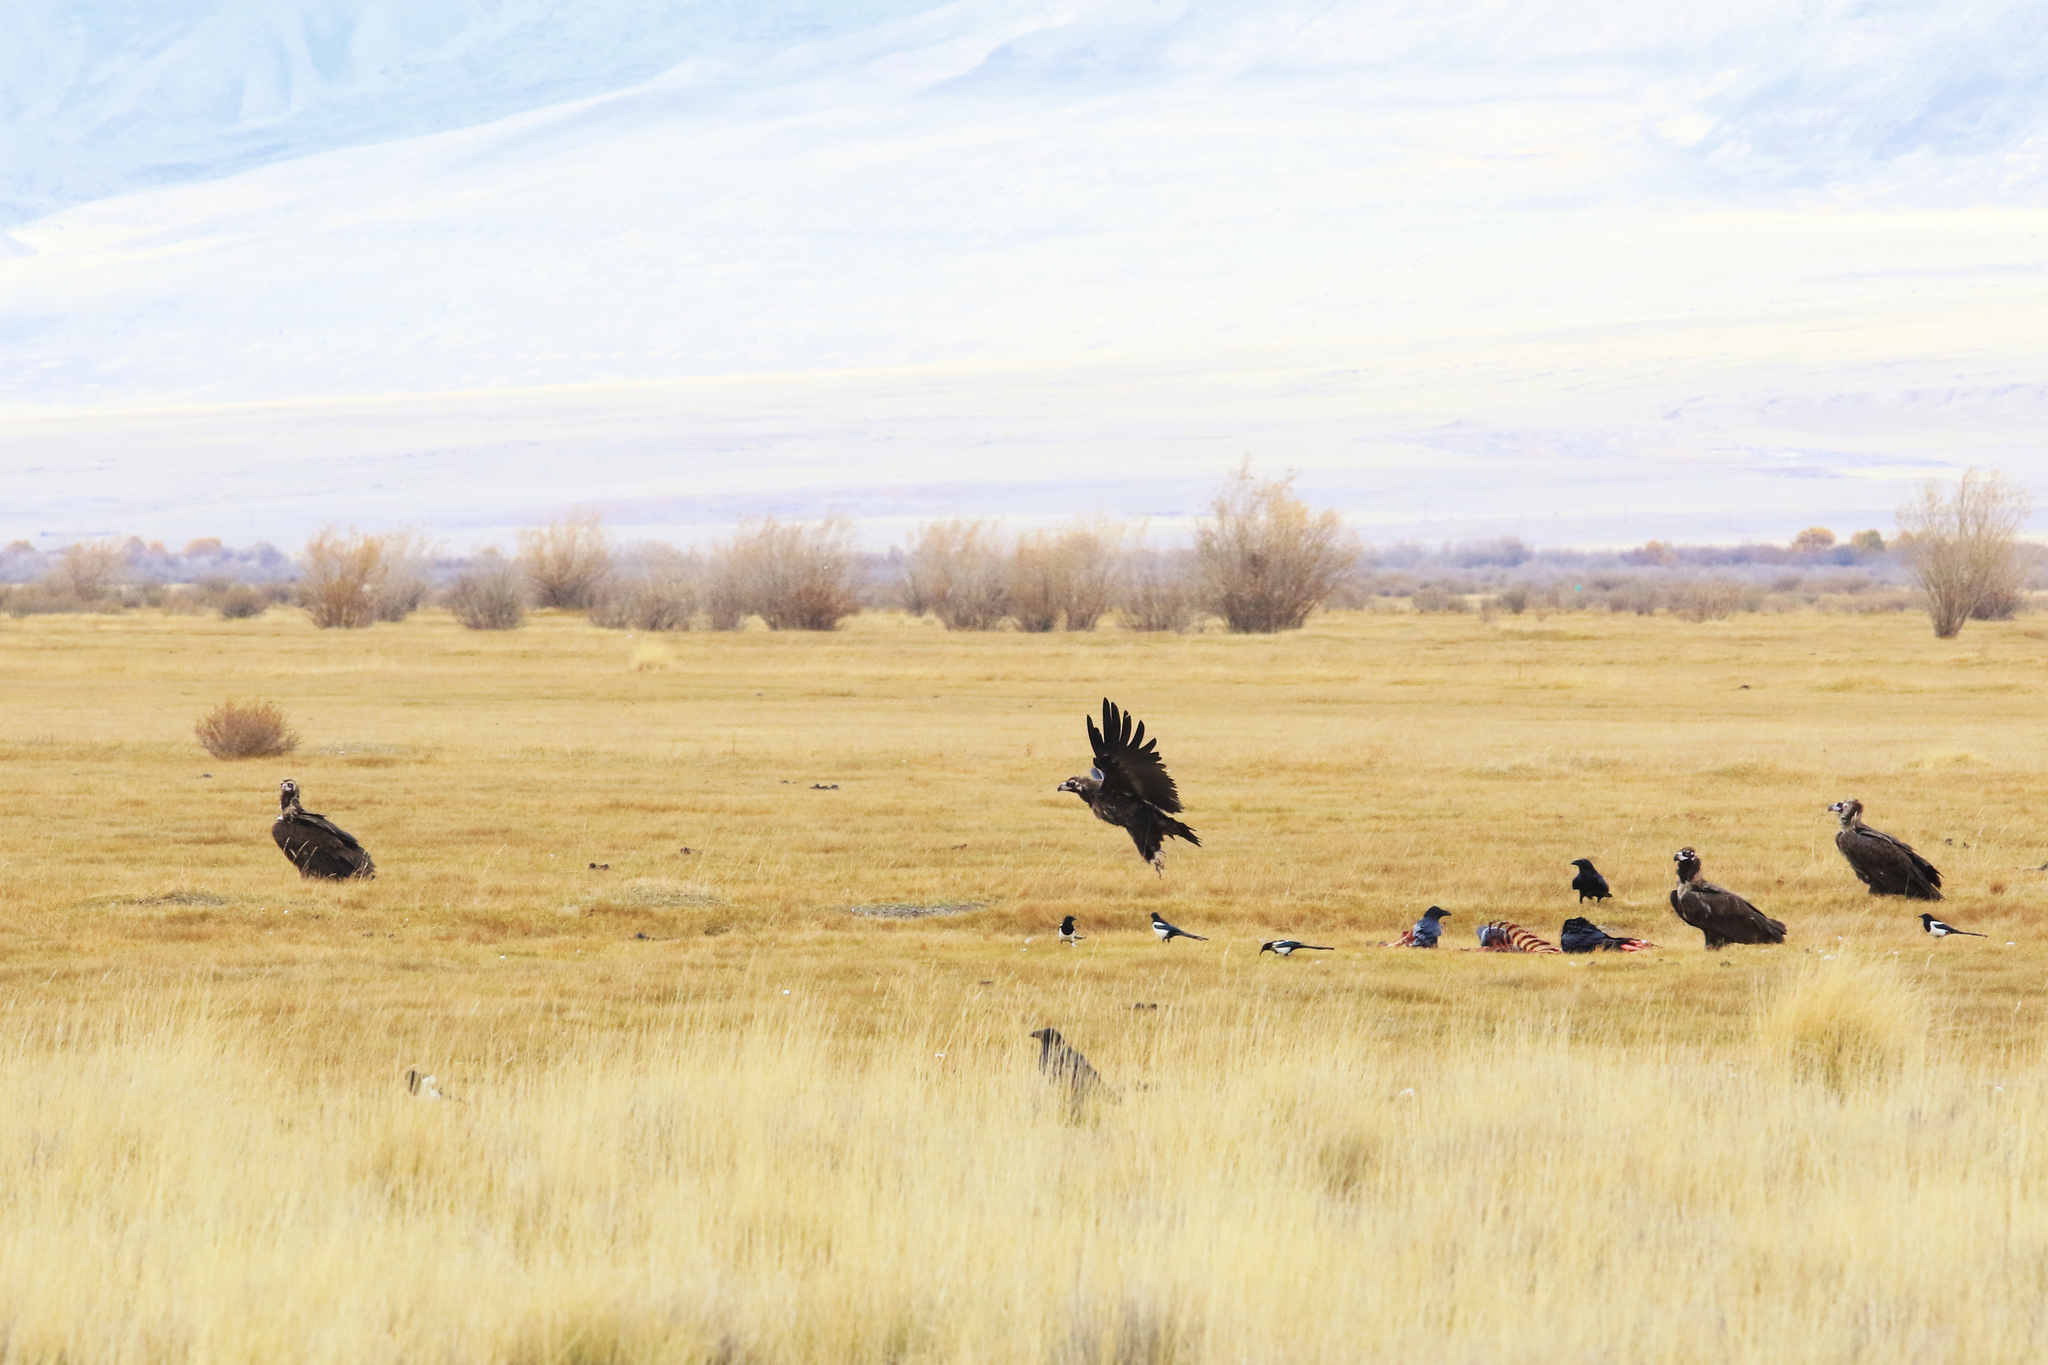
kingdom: Animalia
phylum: Chordata
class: Aves
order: Accipitriformes
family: Accipitridae
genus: Aegypius
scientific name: Aegypius monachus
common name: Cinereous vulture
